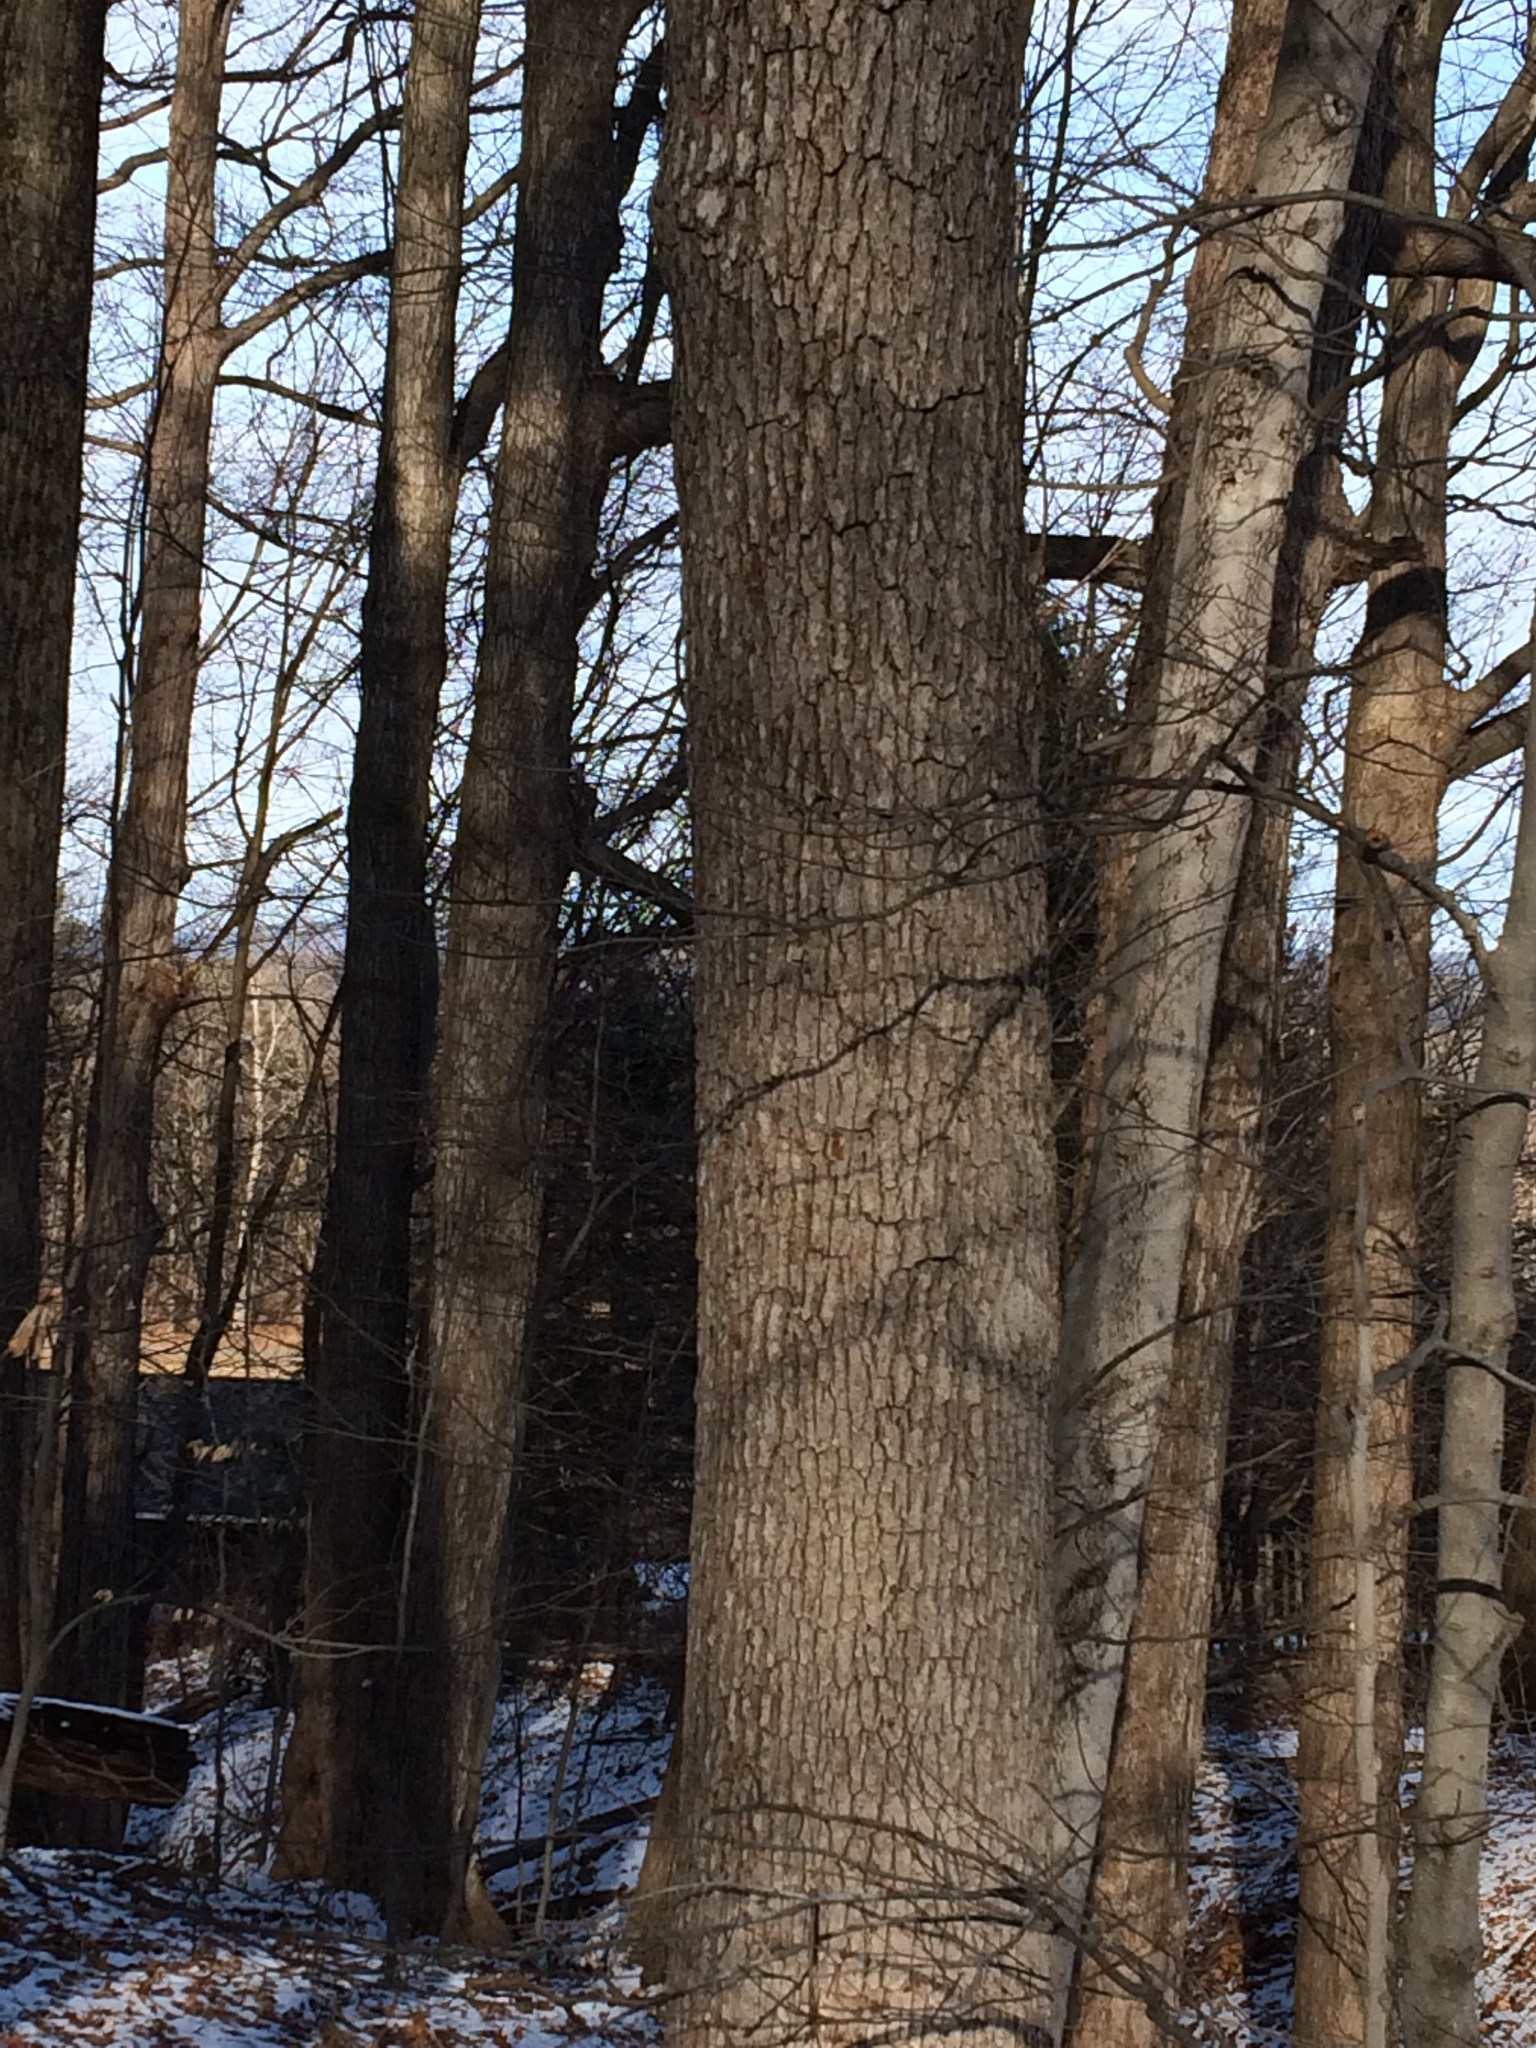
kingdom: Plantae
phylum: Tracheophyta
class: Magnoliopsida
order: Fagales
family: Fagaceae
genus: Quercus
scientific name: Quercus alba
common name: White oak
